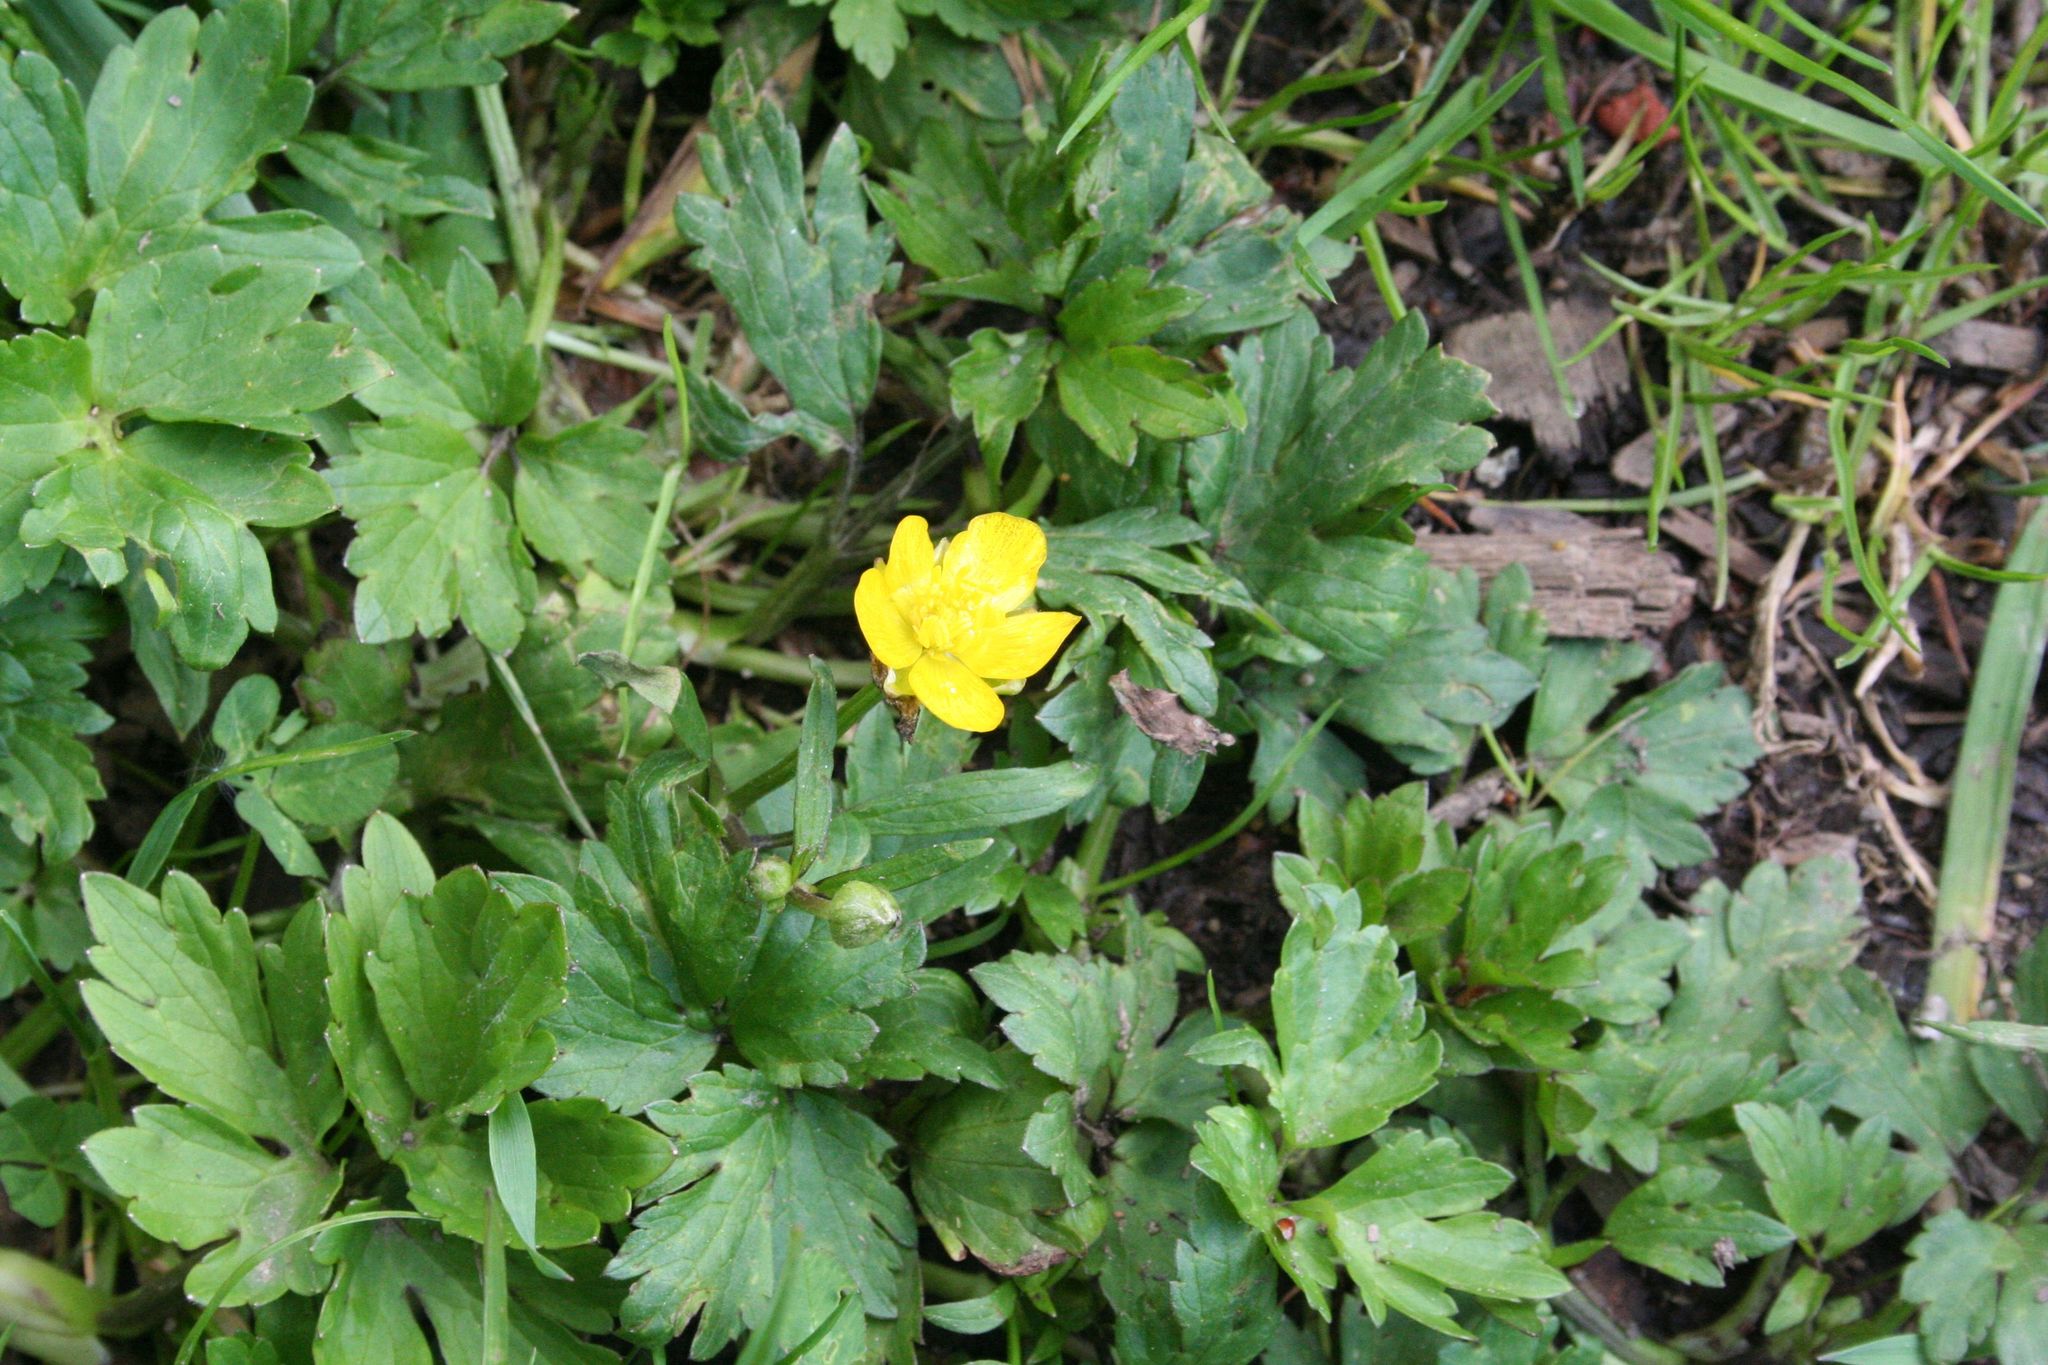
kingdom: Plantae
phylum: Tracheophyta
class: Magnoliopsida
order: Ranunculales
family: Ranunculaceae
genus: Ranunculus
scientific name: Ranunculus repens
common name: Creeping buttercup
